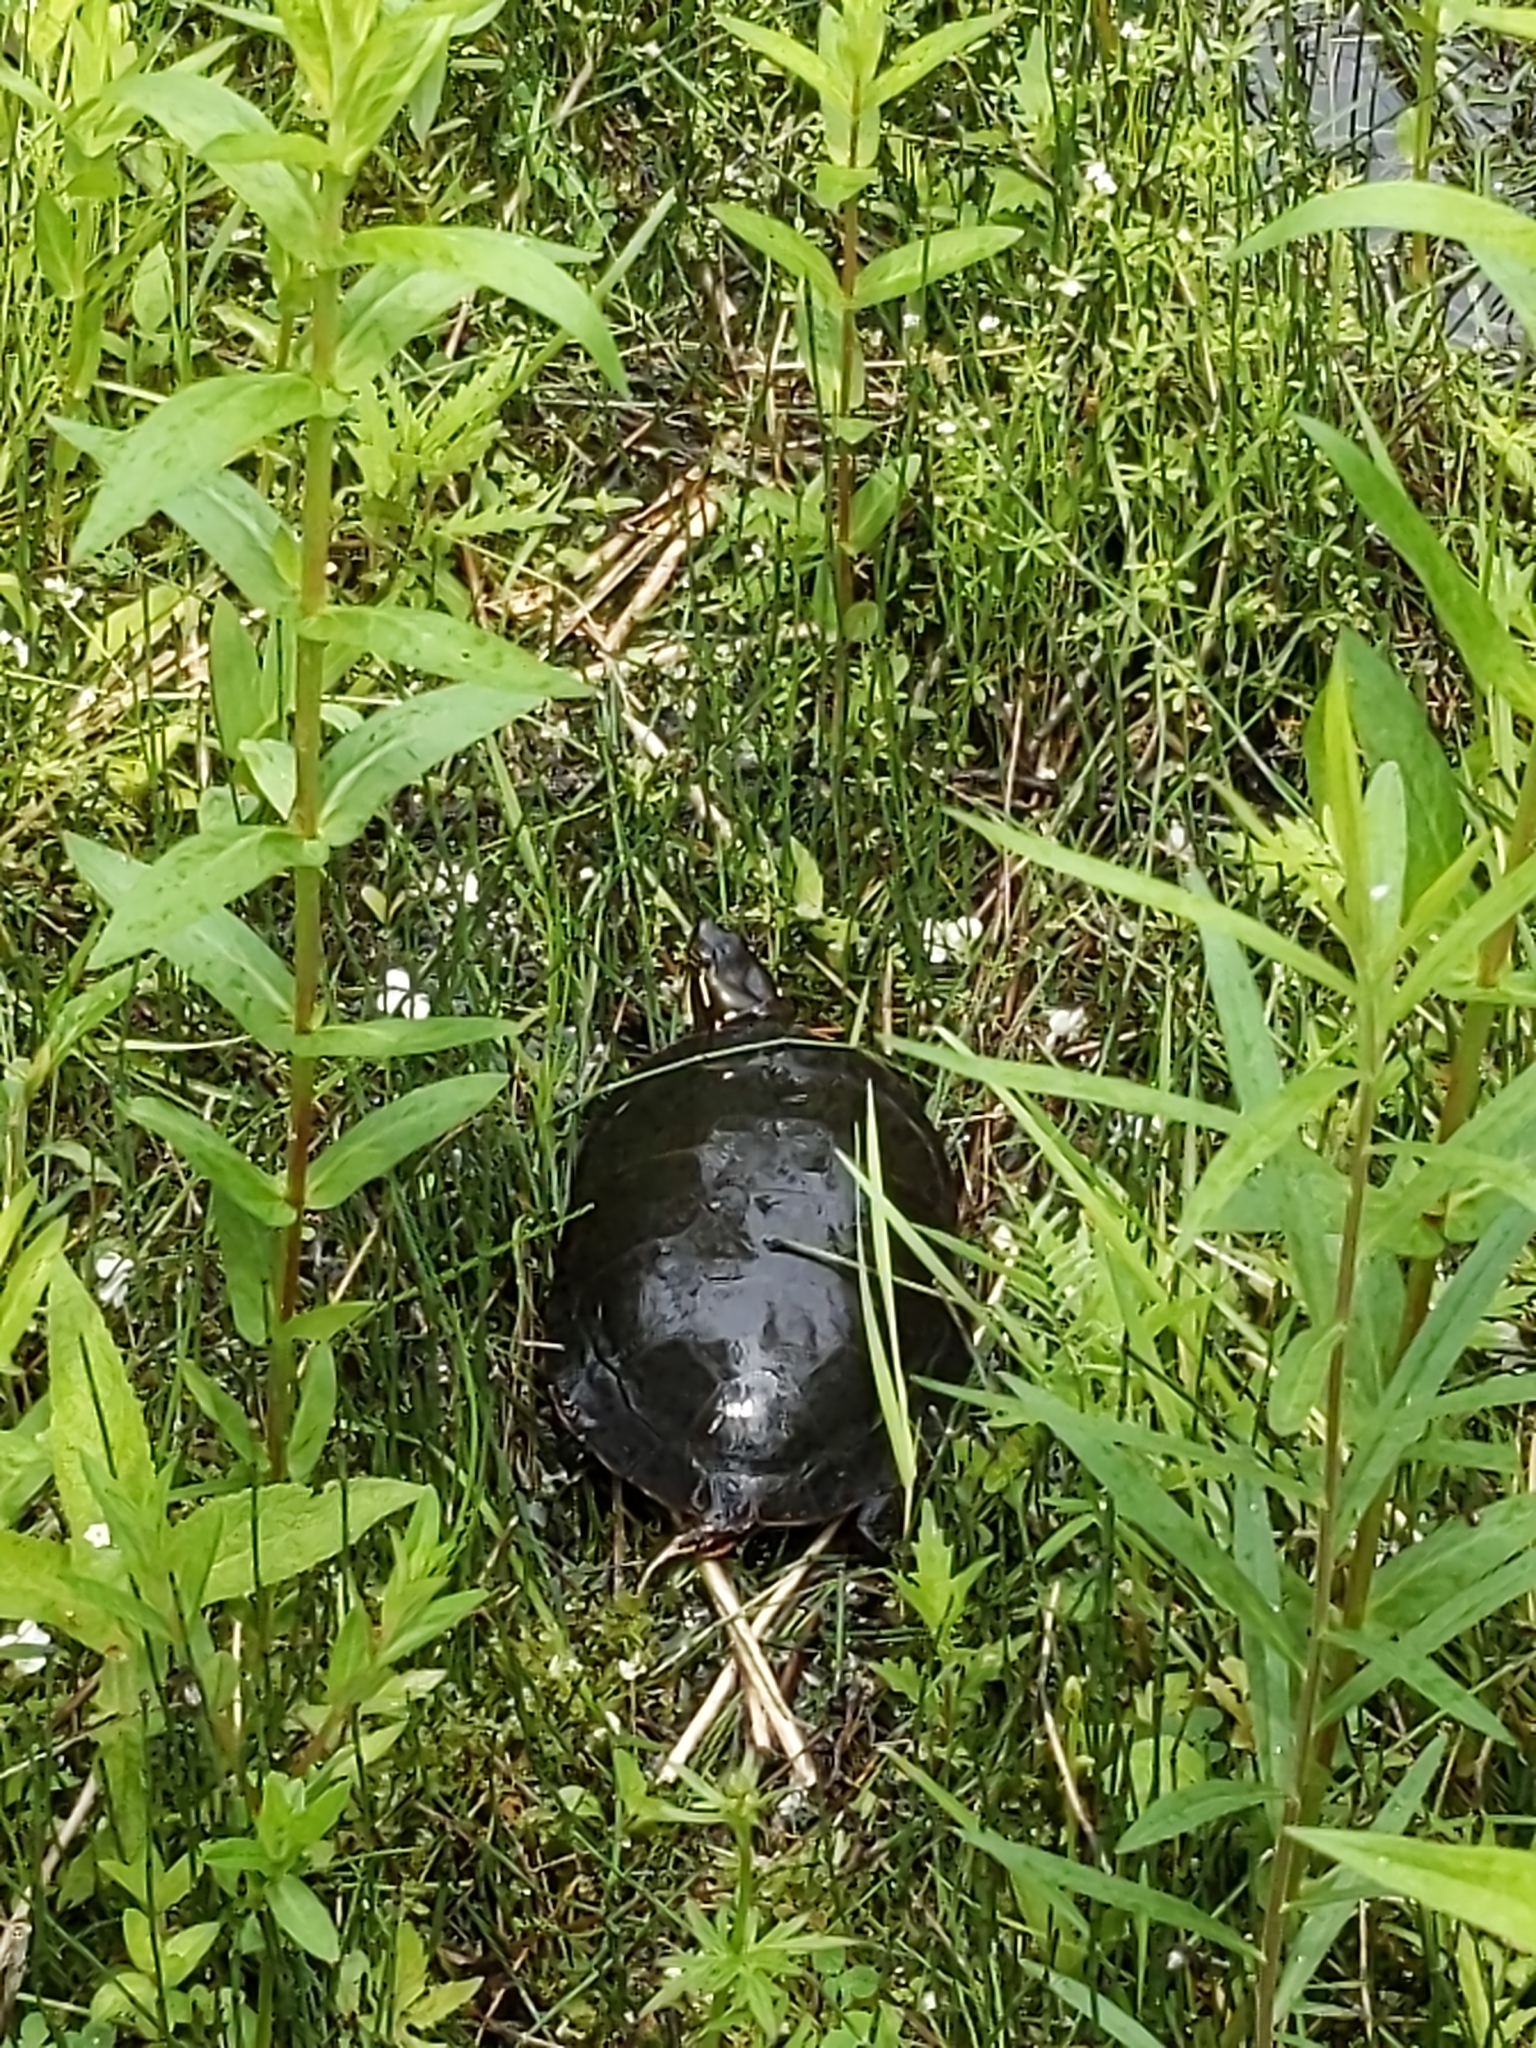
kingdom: Animalia
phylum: Chordata
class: Testudines
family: Emydidae
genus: Chrysemys
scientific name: Chrysemys picta
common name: Painted turtle
